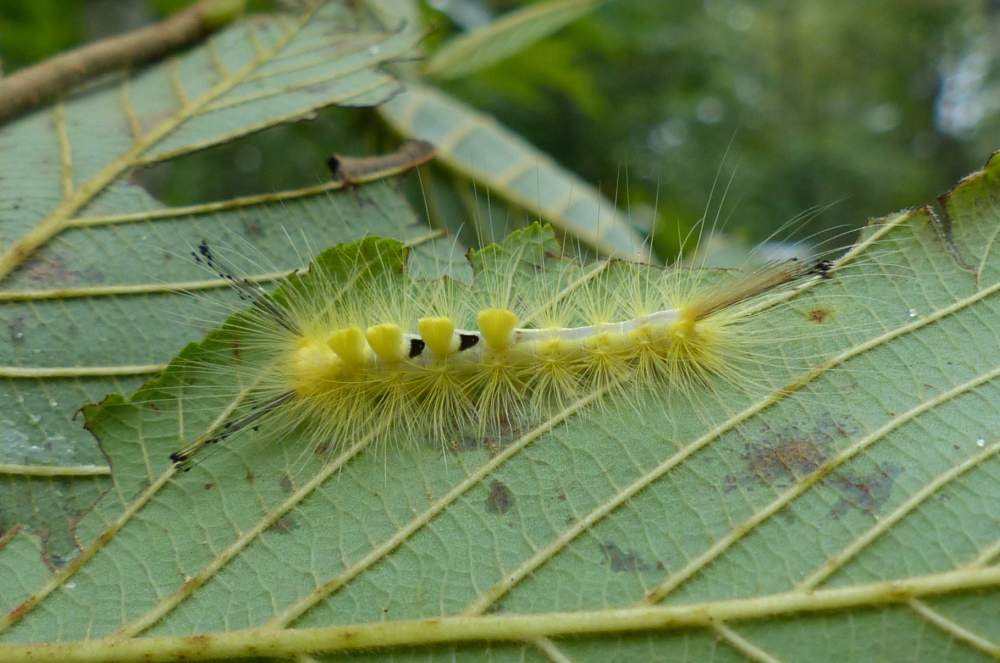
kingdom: Animalia
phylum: Arthropoda
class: Insecta
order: Lepidoptera
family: Erebidae
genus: Orgyia
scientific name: Orgyia definita
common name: Definite tussock moth
